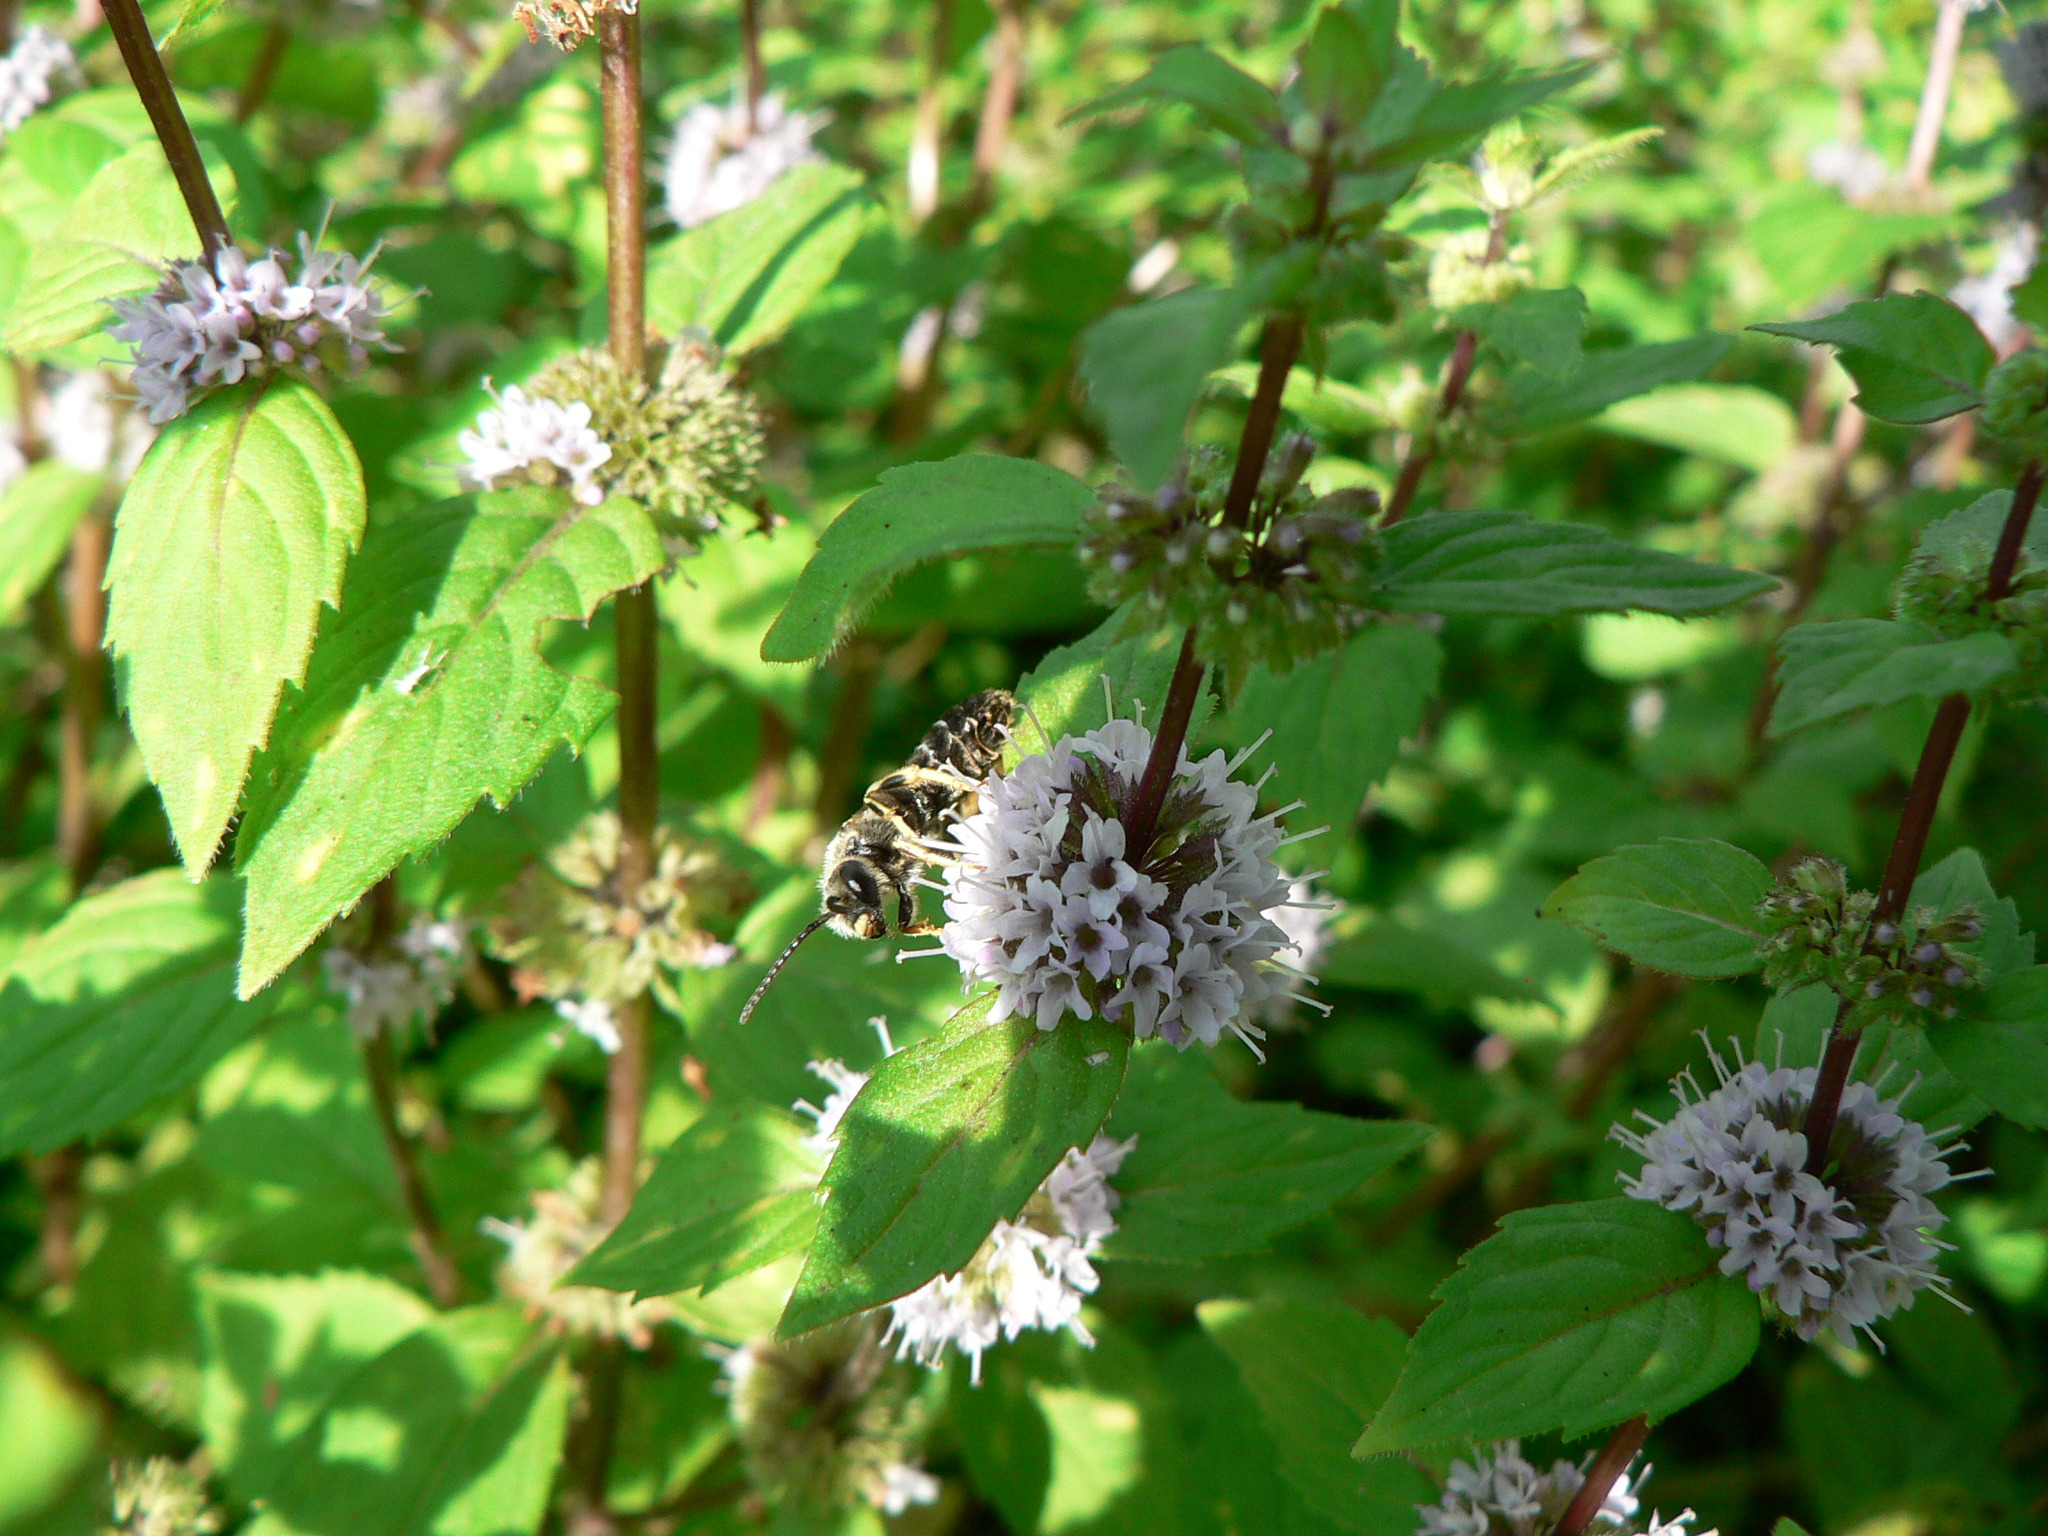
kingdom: Animalia
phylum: Arthropoda
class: Insecta
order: Hymenoptera
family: Halictidae
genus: Halictus
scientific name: Halictus rubicundus
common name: Orange-legged furrow bee
